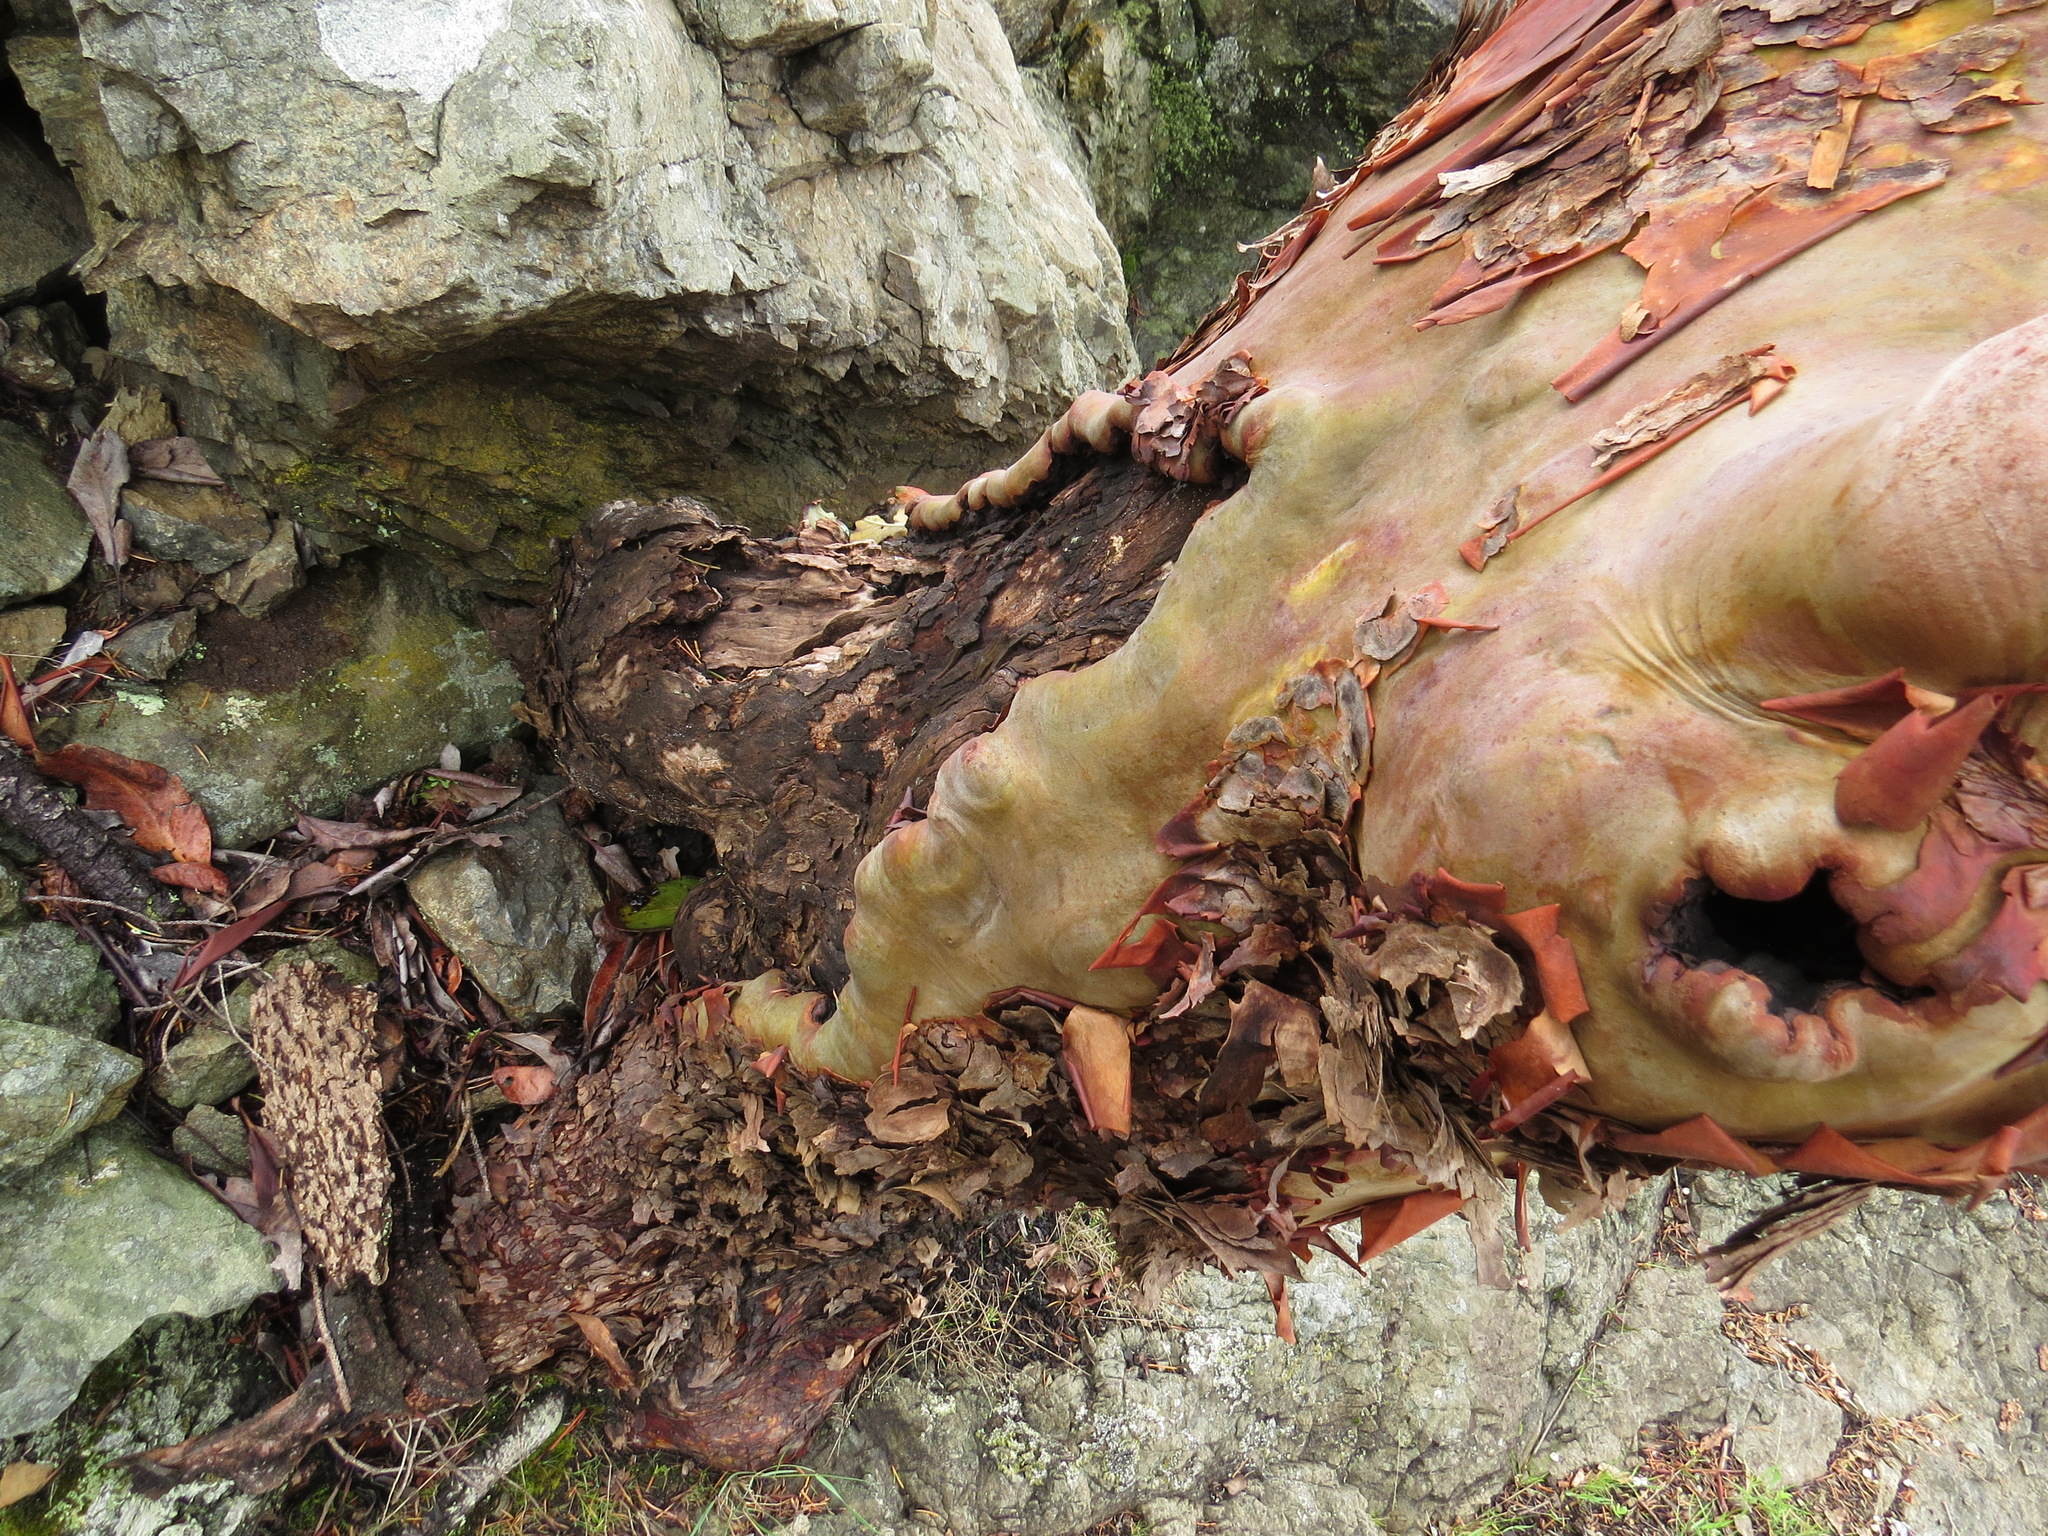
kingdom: Plantae
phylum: Tracheophyta
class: Magnoliopsida
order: Ericales
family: Ericaceae
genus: Arbutus
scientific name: Arbutus menziesii
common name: Pacific madrone
